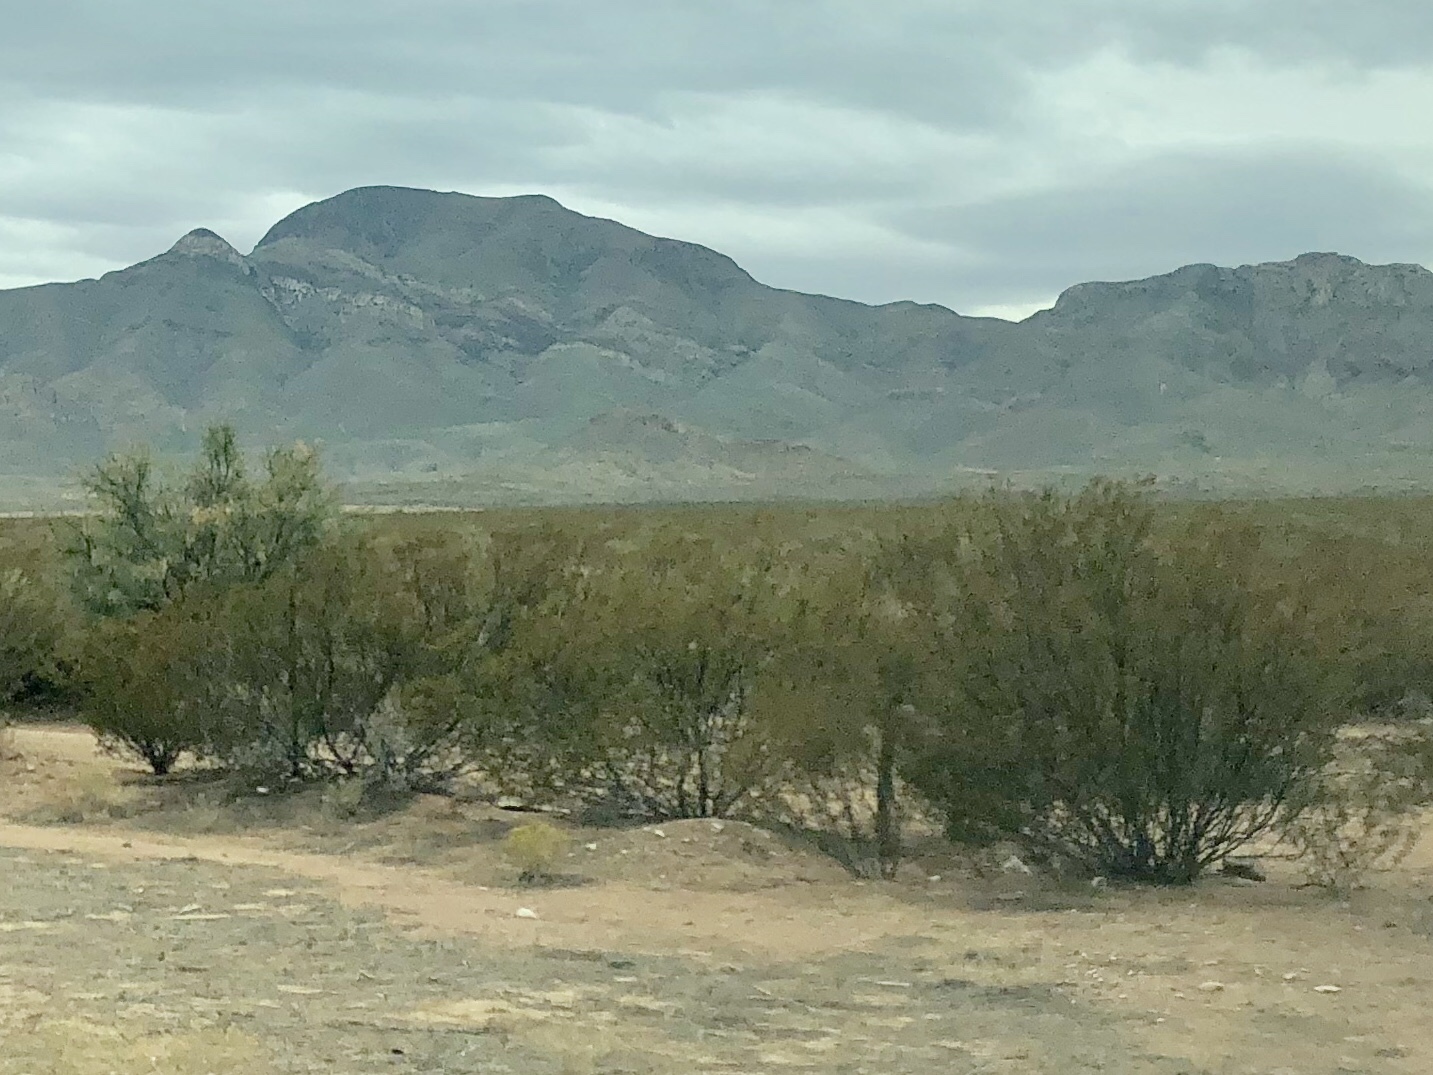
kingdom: Plantae
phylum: Tracheophyta
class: Magnoliopsida
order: Zygophyllales
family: Zygophyllaceae
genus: Larrea
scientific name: Larrea tridentata
